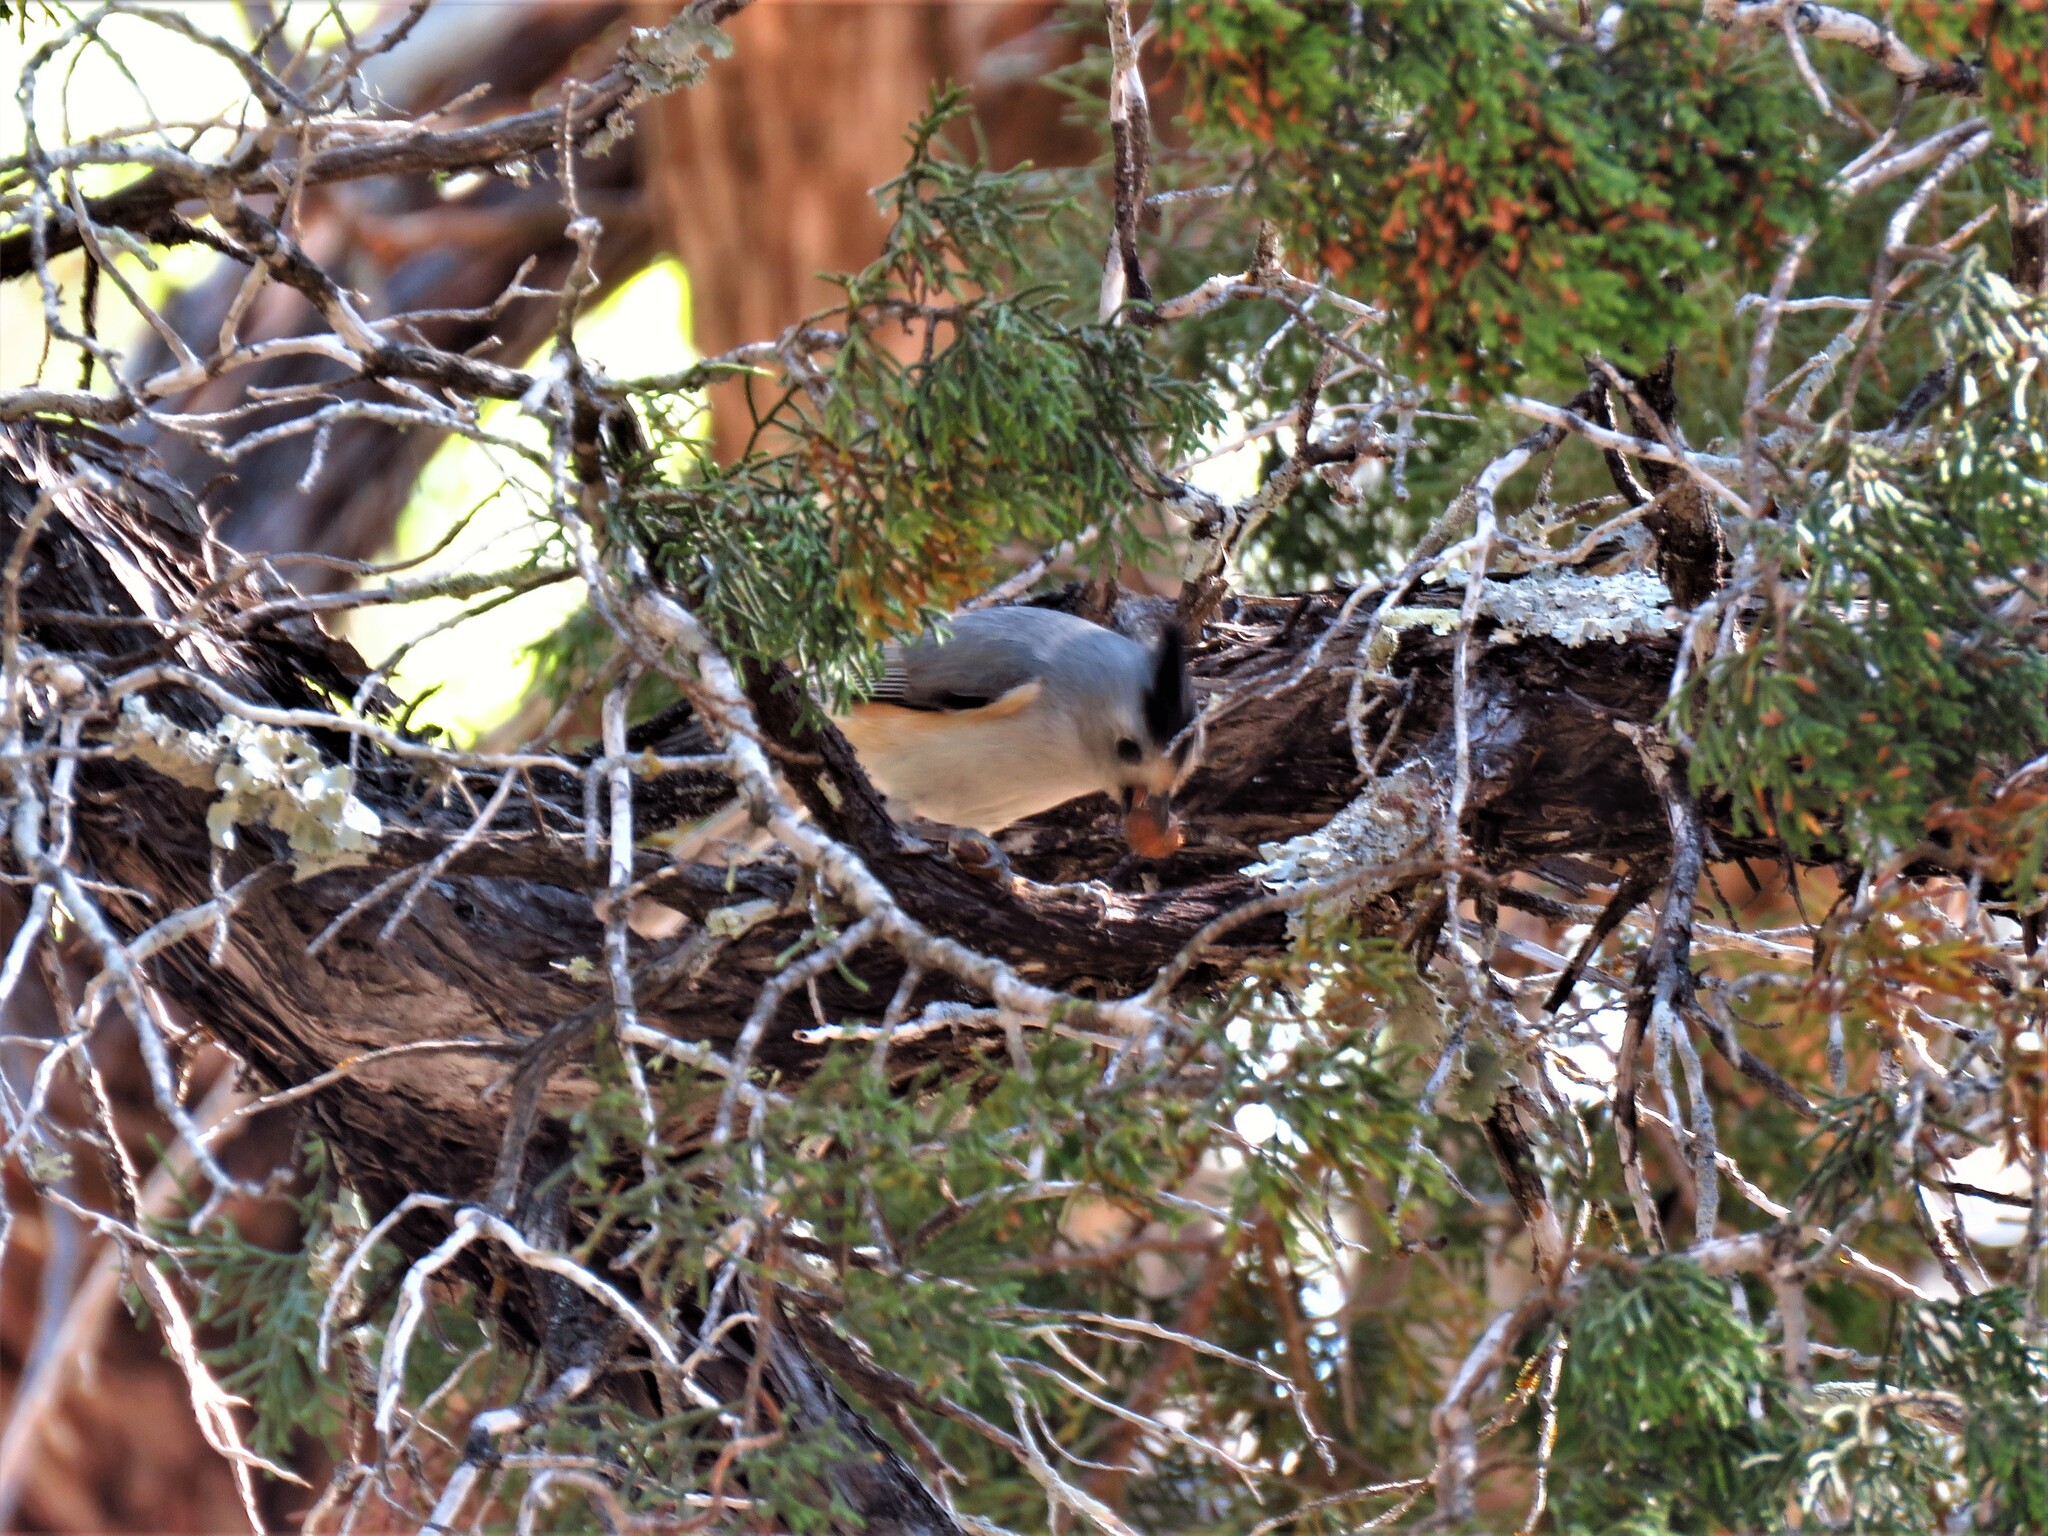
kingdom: Animalia
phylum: Chordata
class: Aves
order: Passeriformes
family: Paridae
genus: Baeolophus
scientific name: Baeolophus atricristatus
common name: Black-crested titmouse
